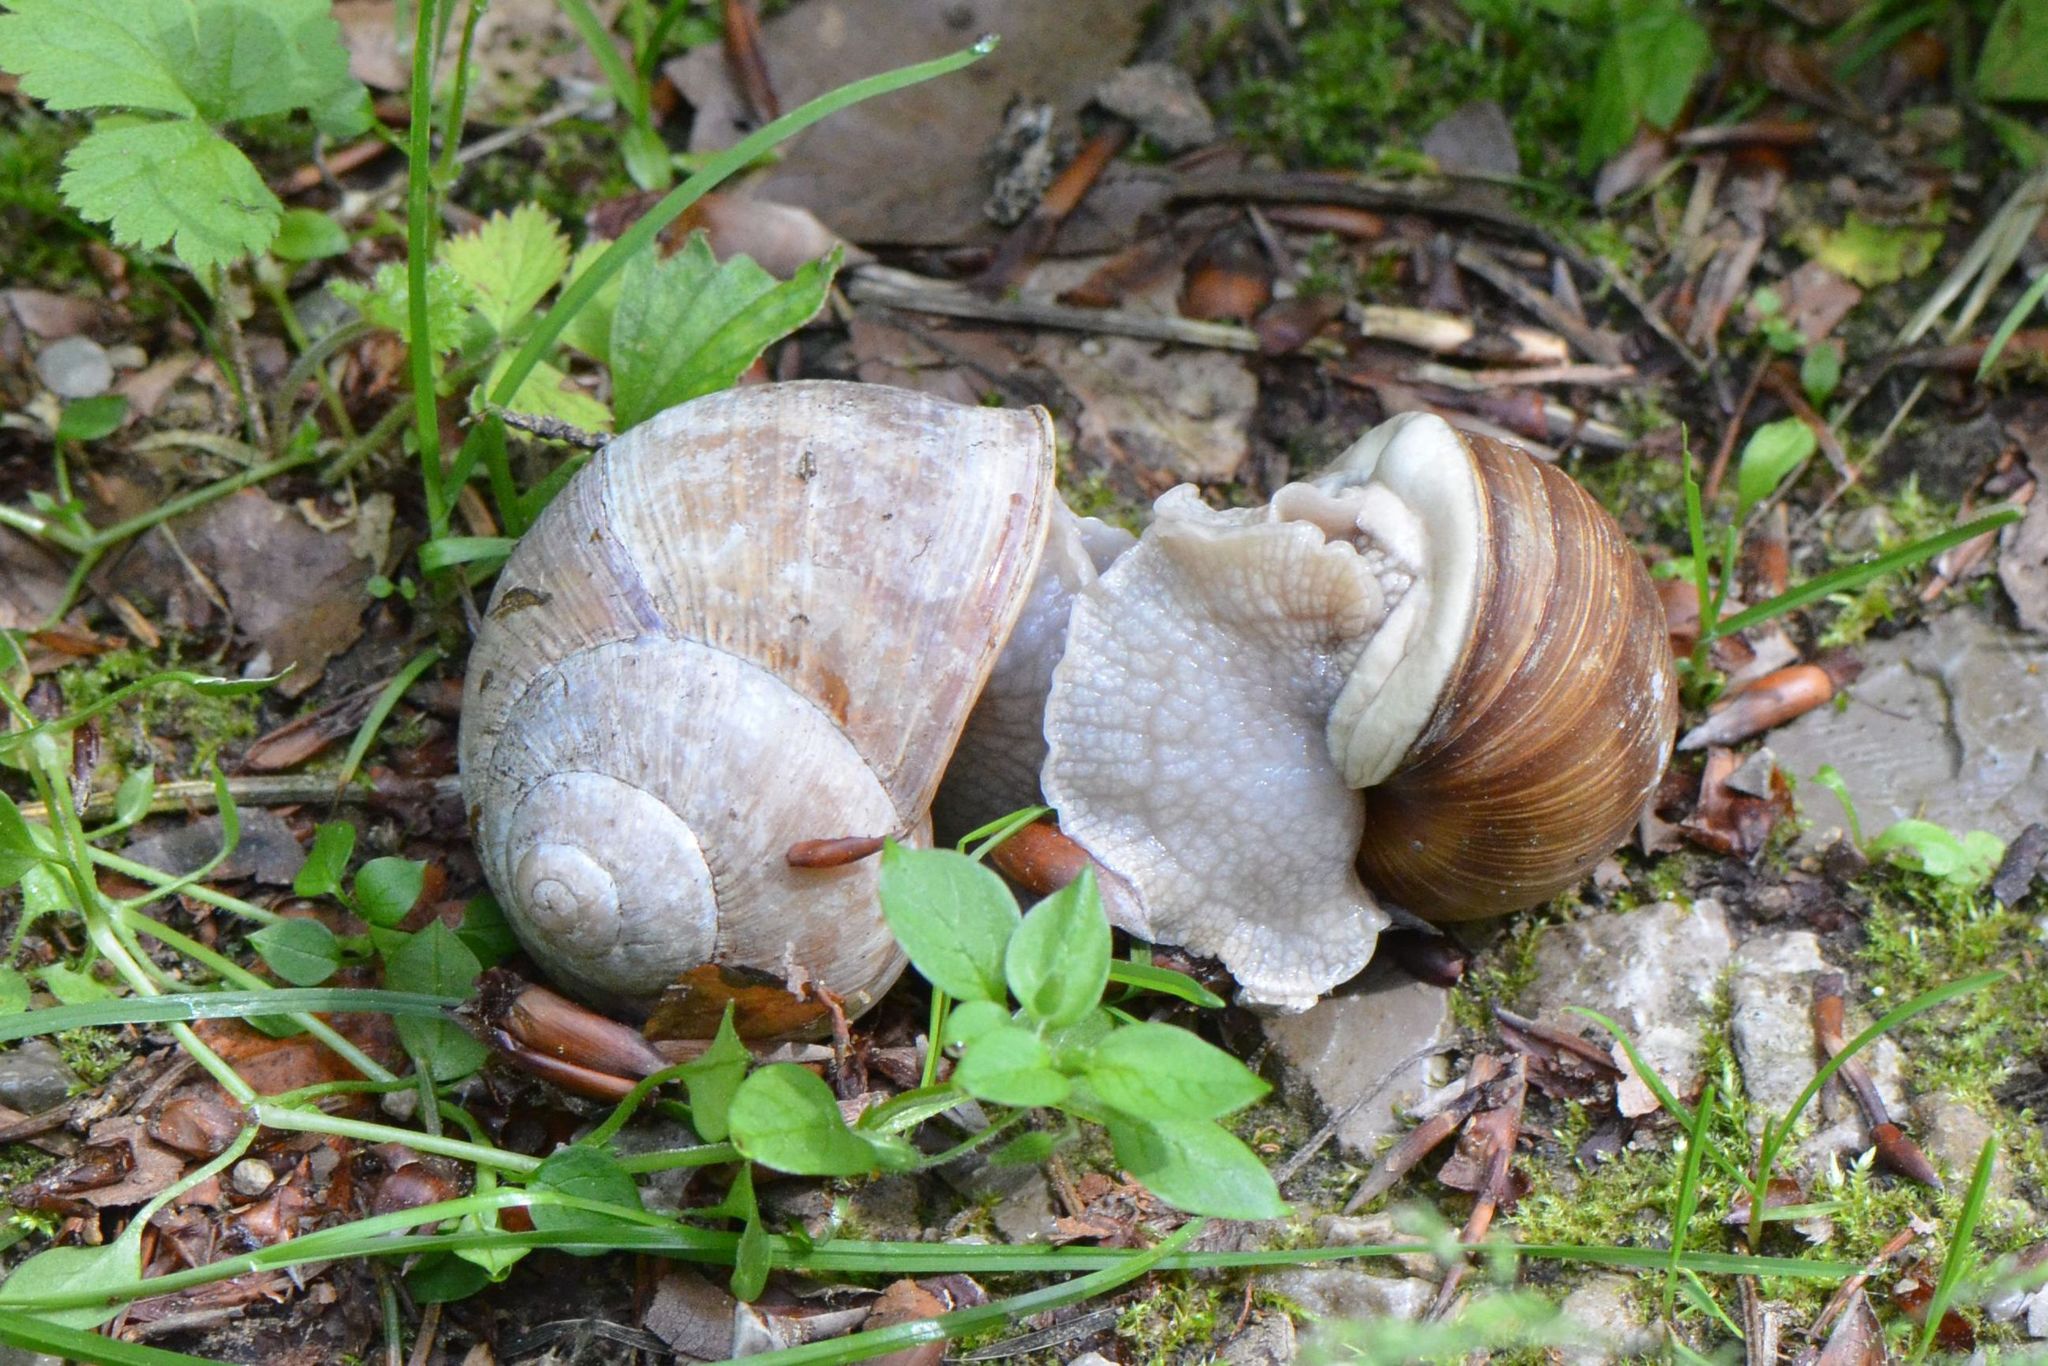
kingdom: Animalia
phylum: Mollusca
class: Gastropoda
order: Stylommatophora
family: Helicidae
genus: Helix
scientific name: Helix pomatia
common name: Roman snail
